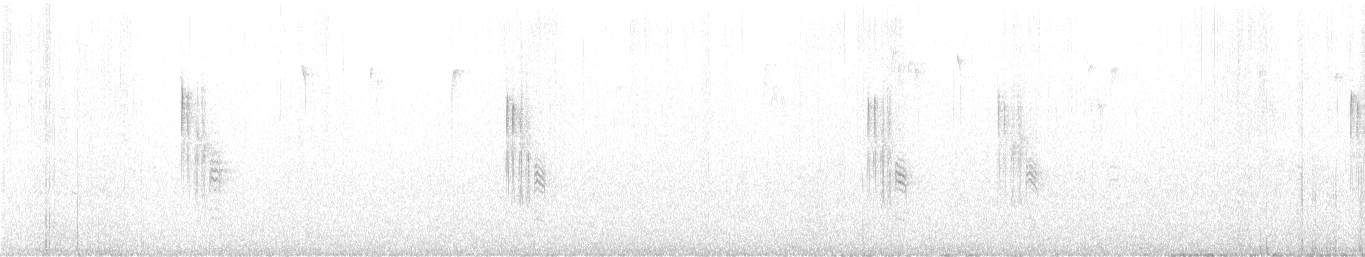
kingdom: Animalia
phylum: Chordata
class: Aves
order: Passeriformes
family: Paridae
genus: Poecile
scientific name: Poecile atricapillus
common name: Black-capped chickadee
